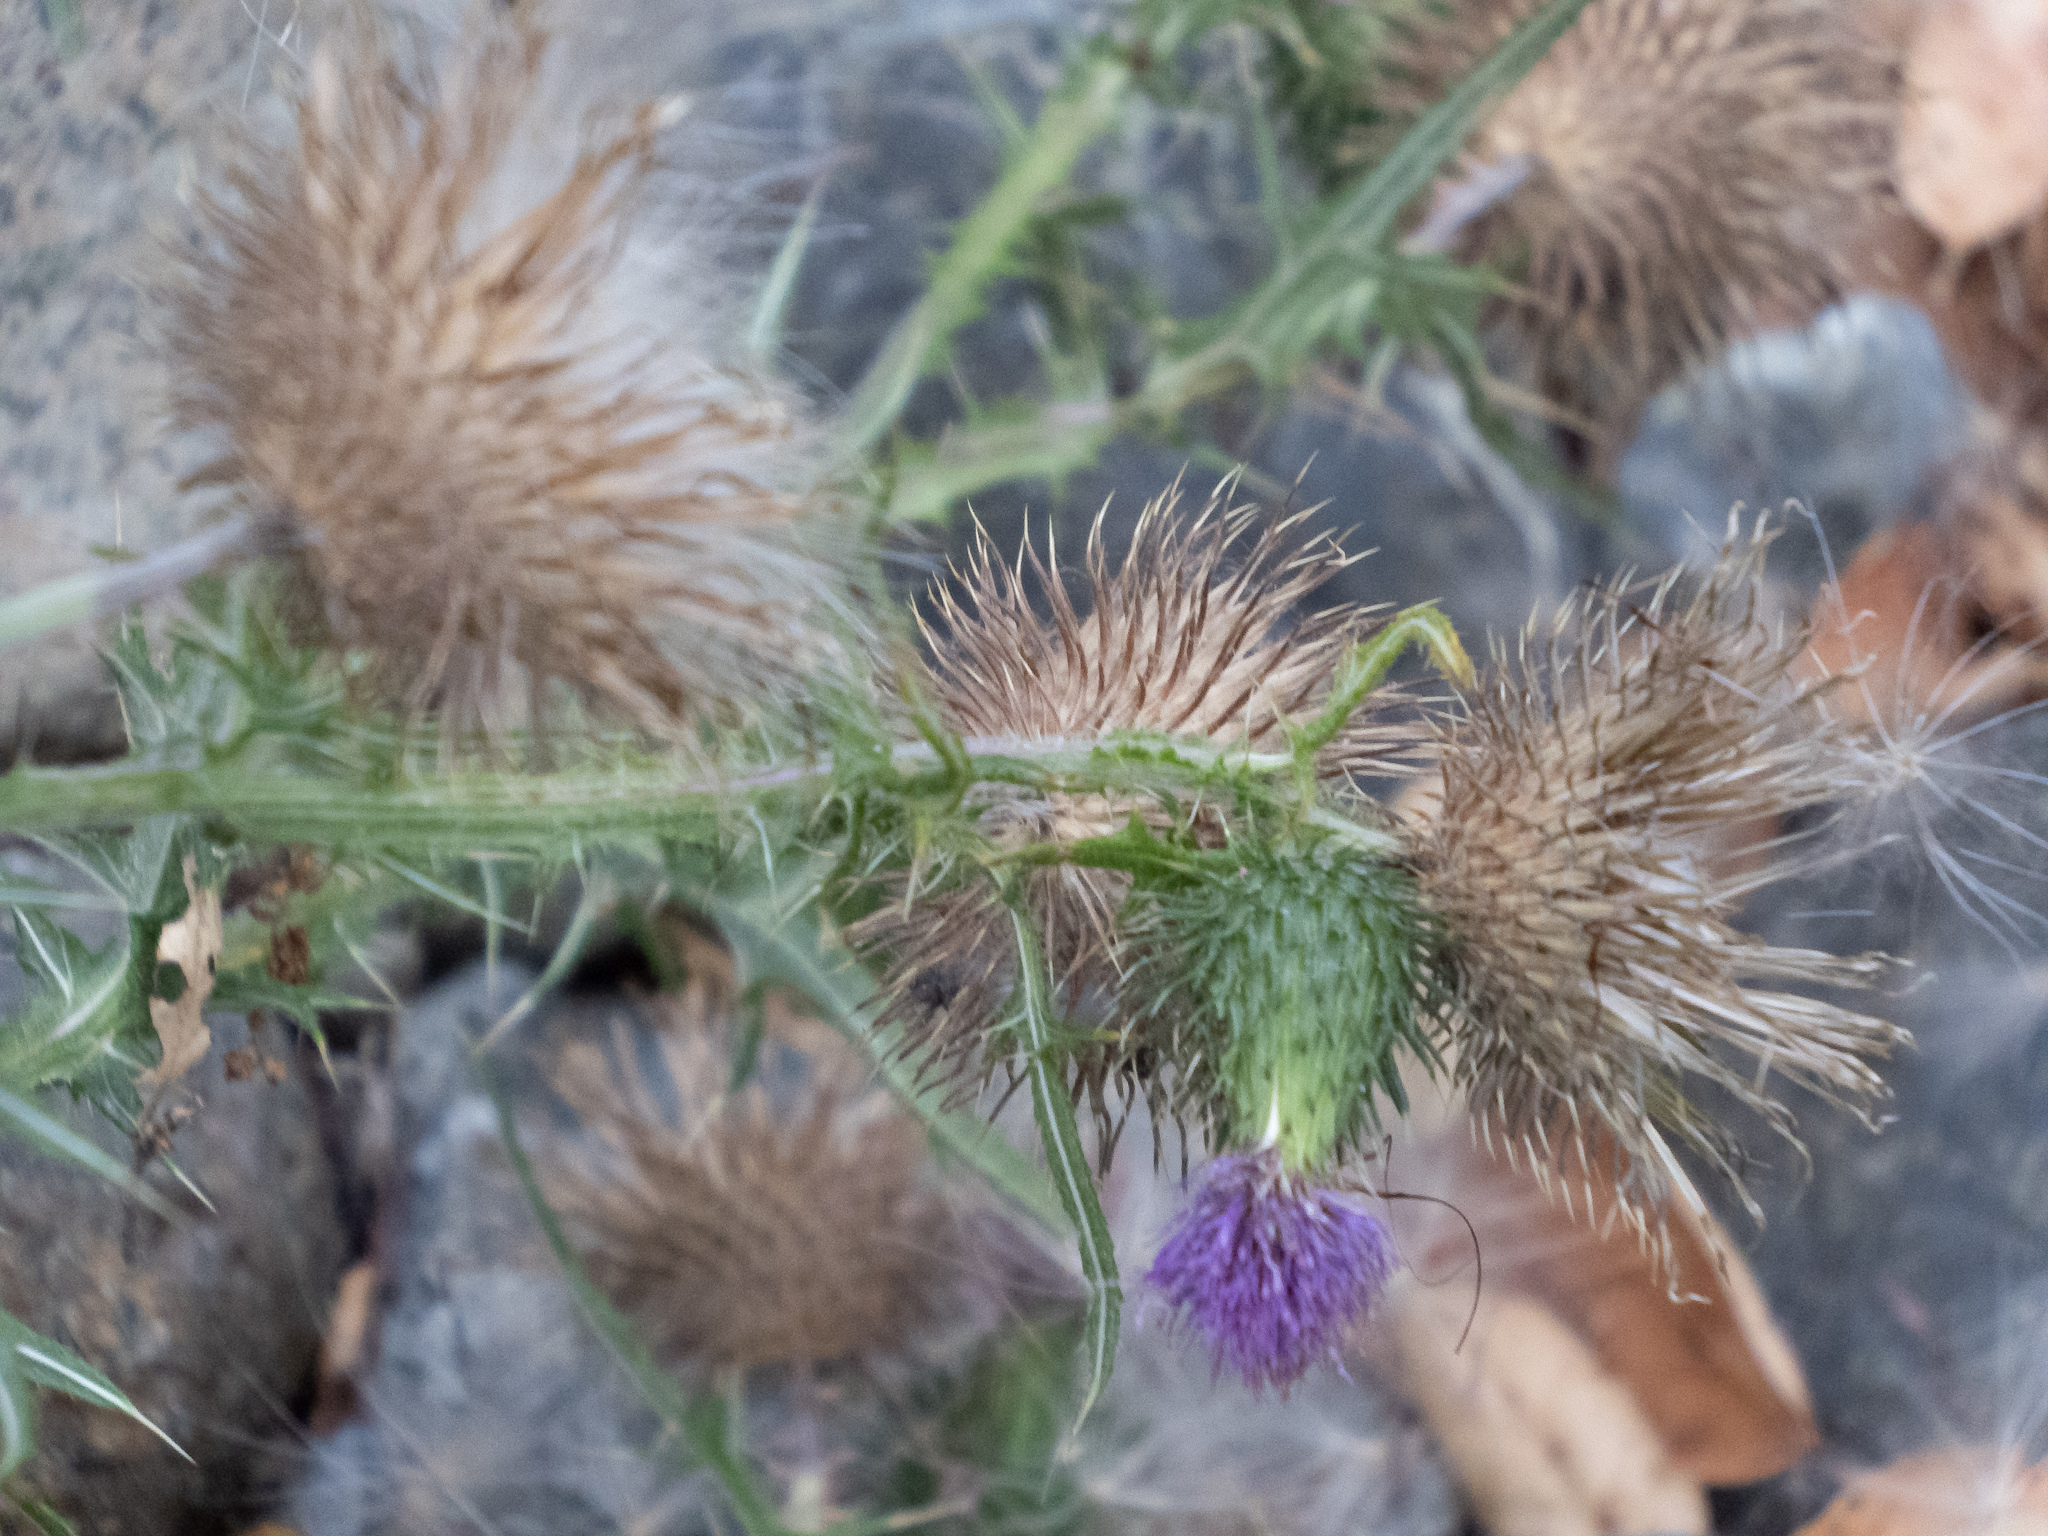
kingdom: Plantae
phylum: Tracheophyta
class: Magnoliopsida
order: Asterales
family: Asteraceae
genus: Cirsium
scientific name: Cirsium vulgare
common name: Bull thistle
